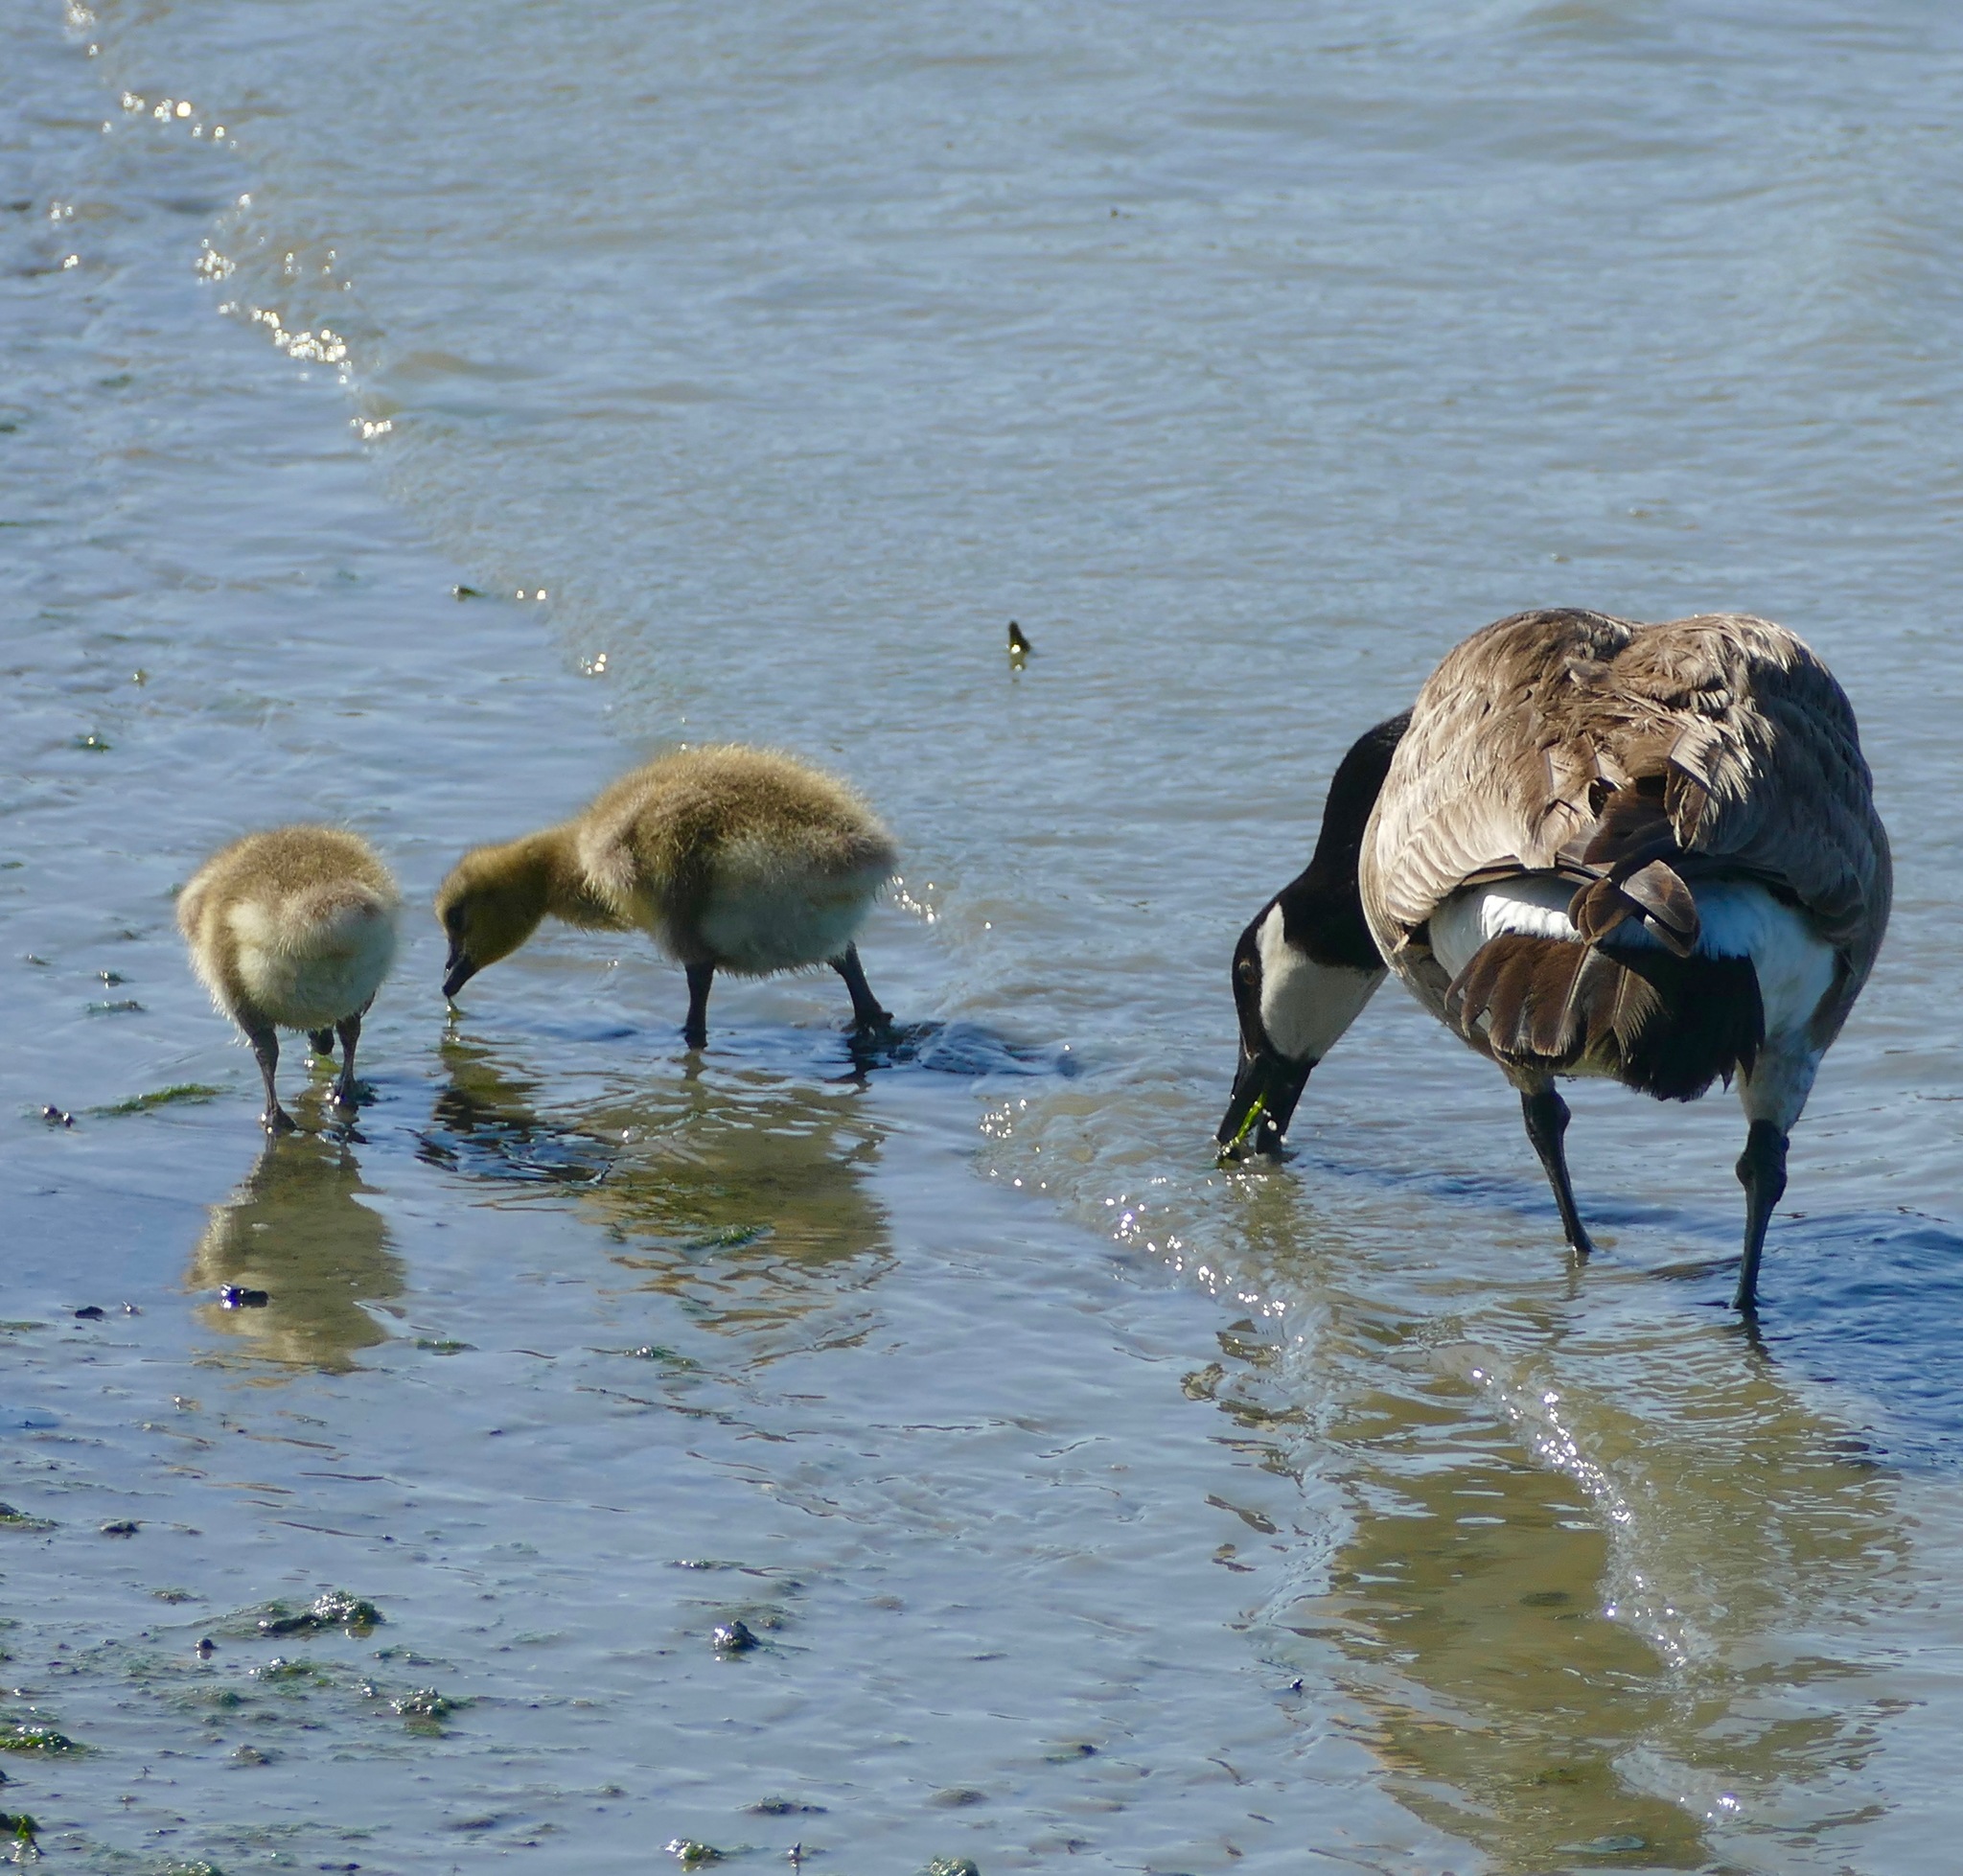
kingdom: Animalia
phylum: Chordata
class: Aves
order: Anseriformes
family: Anatidae
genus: Branta
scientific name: Branta canadensis
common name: Canada goose
